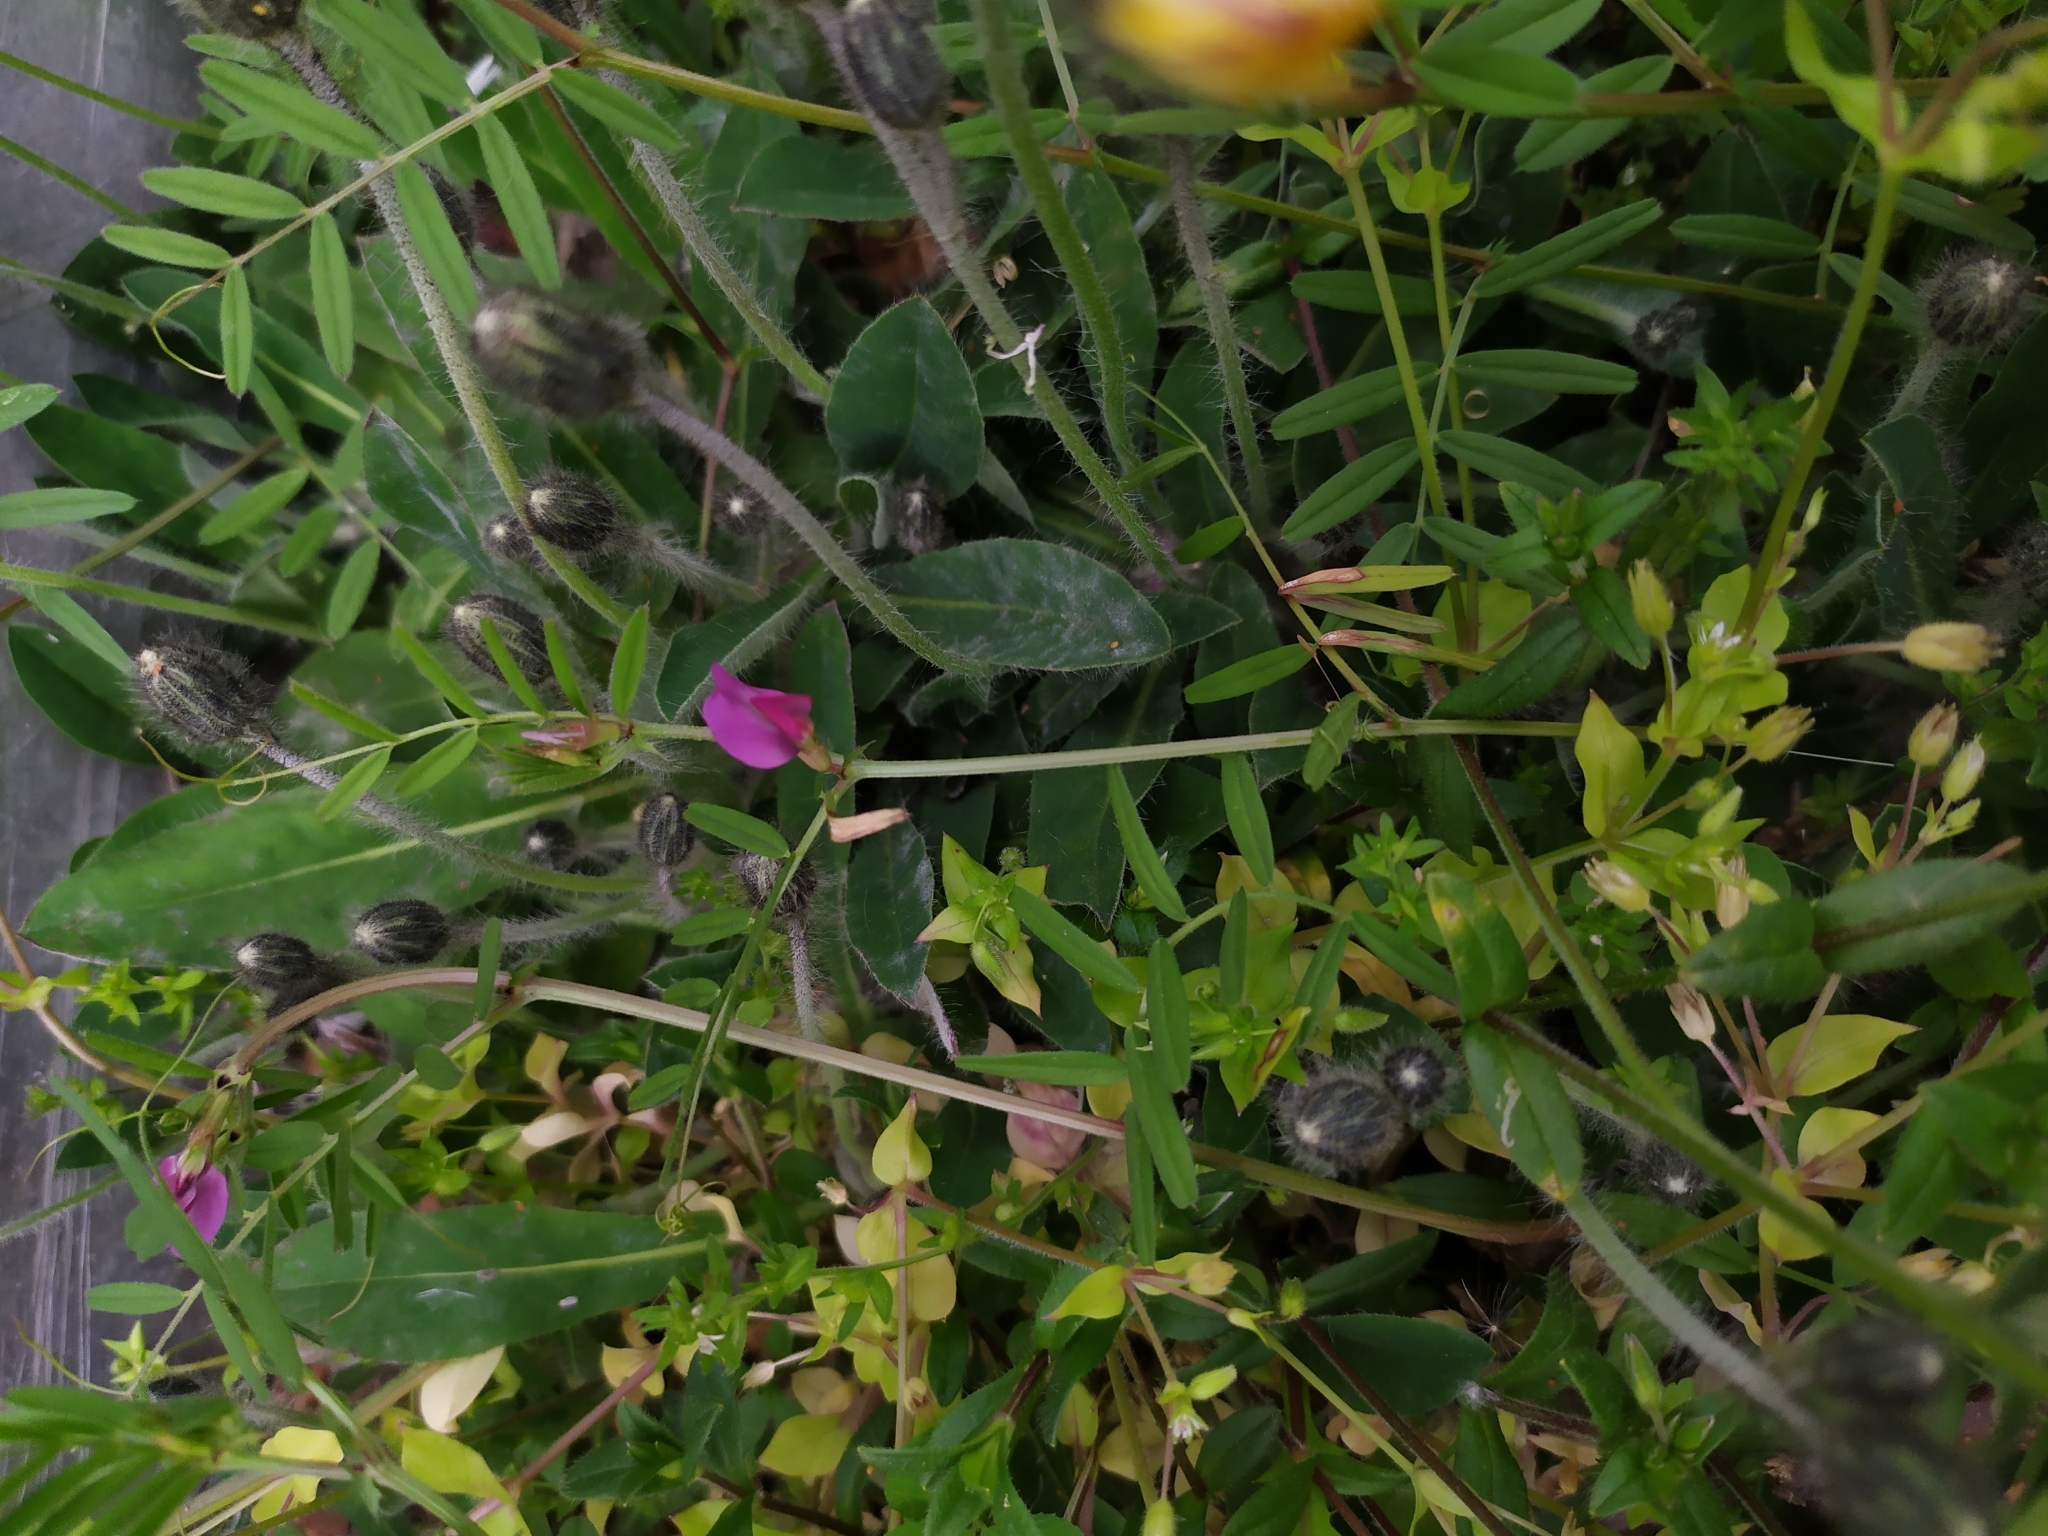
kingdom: Plantae
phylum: Tracheophyta
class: Magnoliopsida
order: Fabales
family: Fabaceae
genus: Vicia
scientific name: Vicia sativa
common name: Garden vetch
